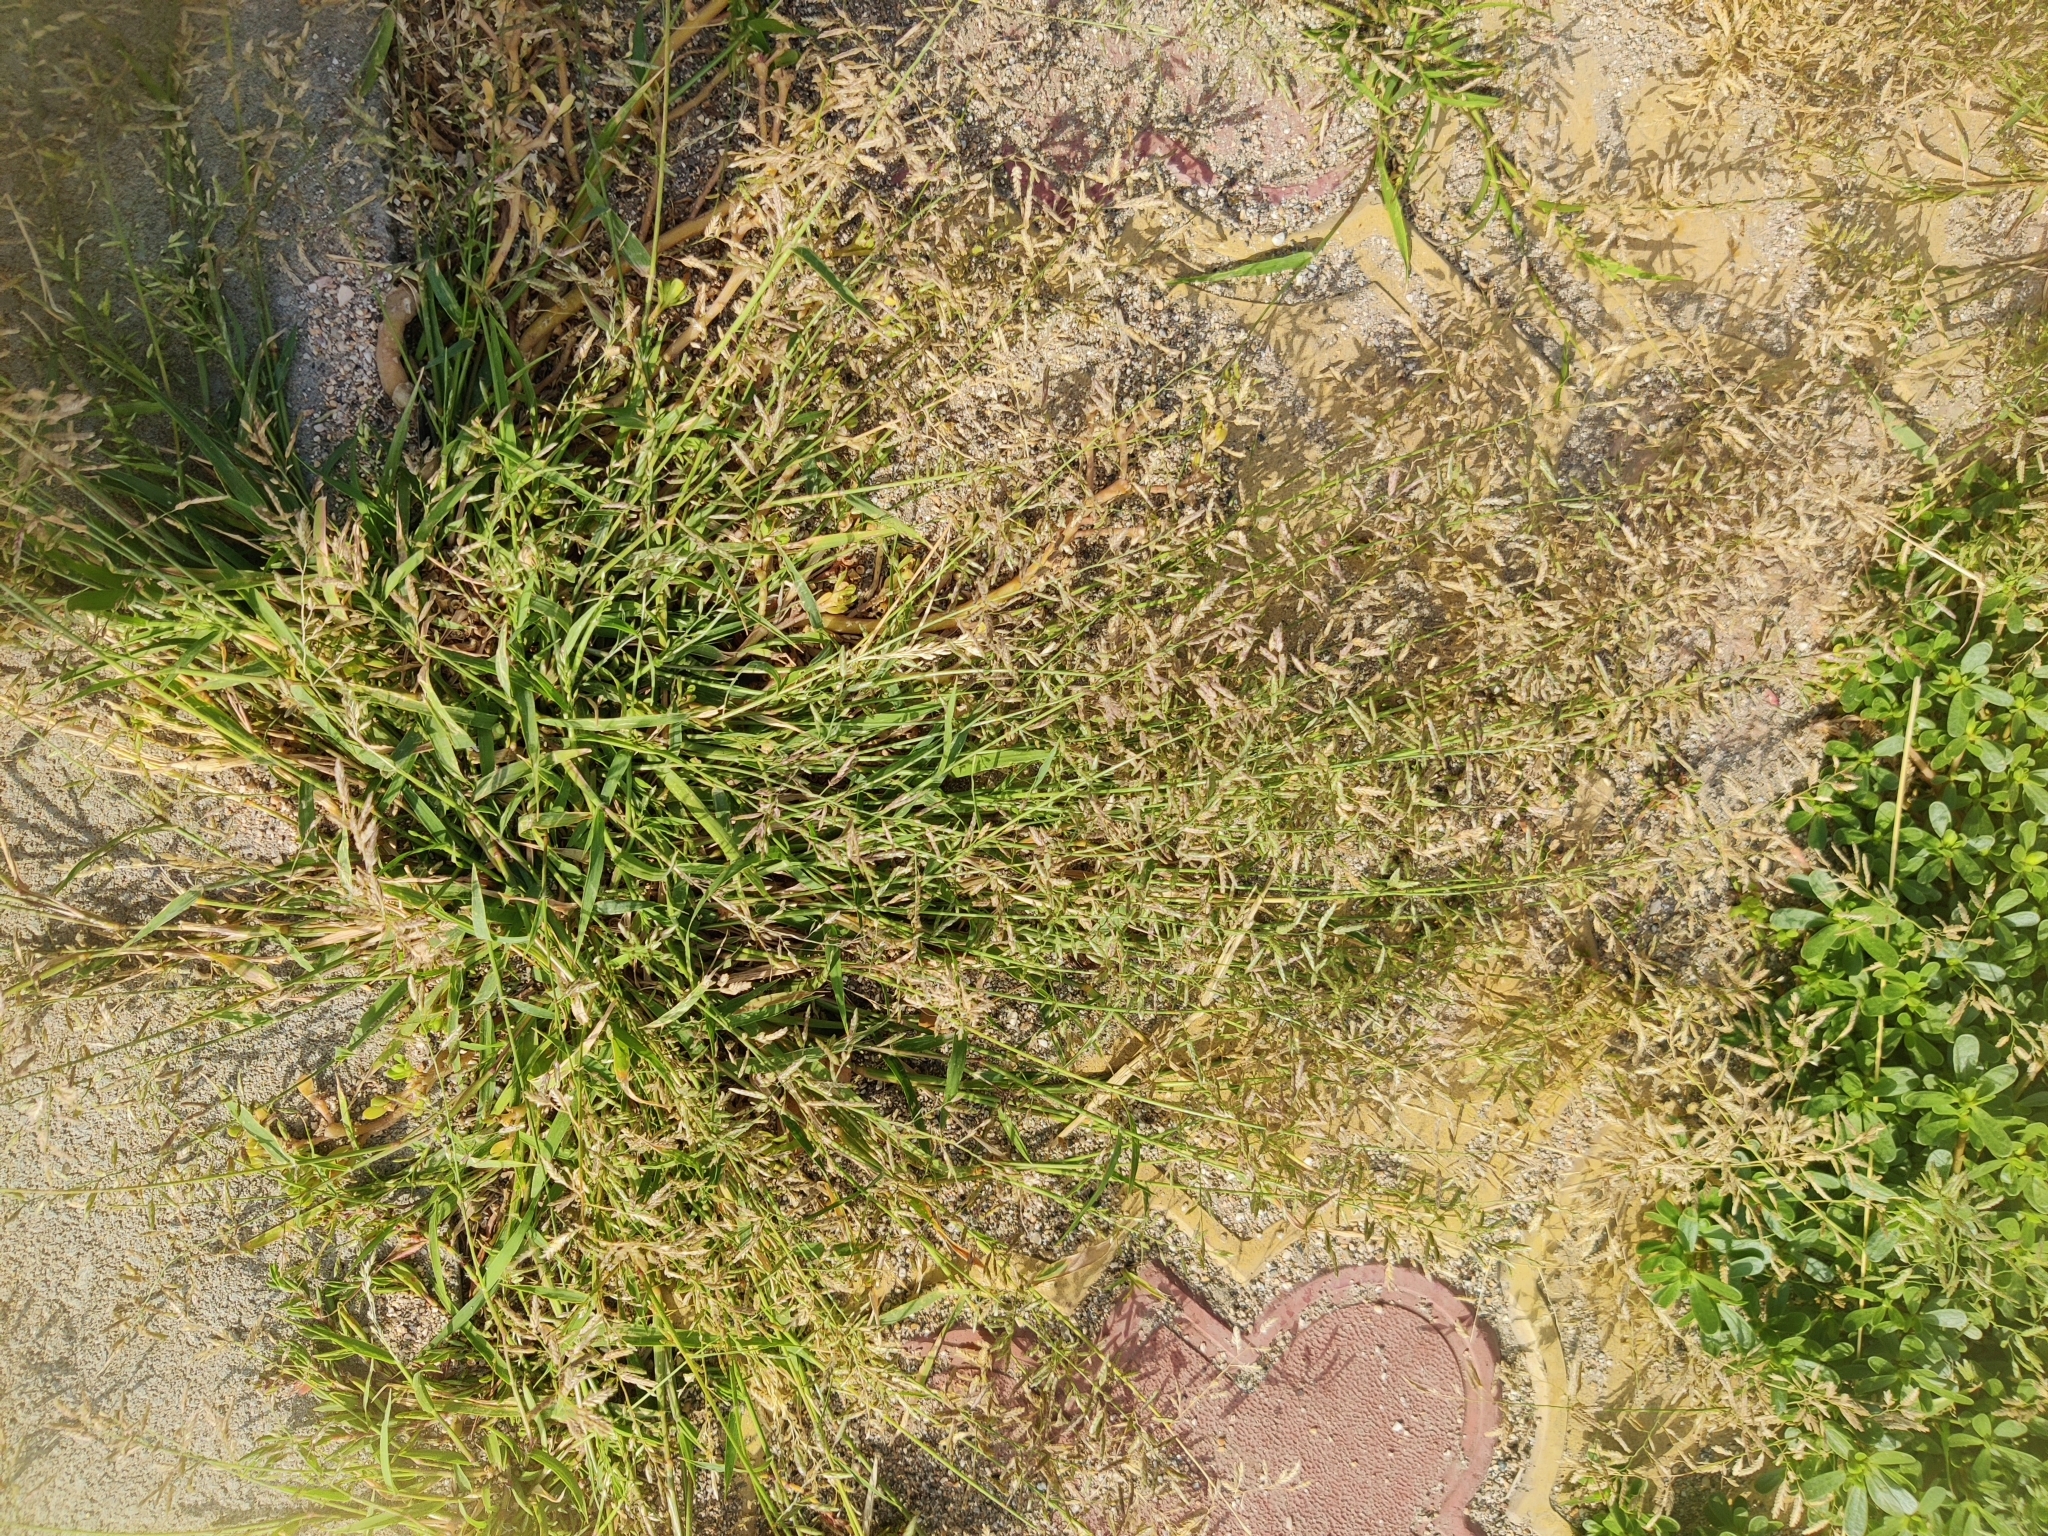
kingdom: Plantae
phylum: Tracheophyta
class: Liliopsida
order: Poales
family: Poaceae
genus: Eragrostis
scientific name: Eragrostis minor
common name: Small love-grass
